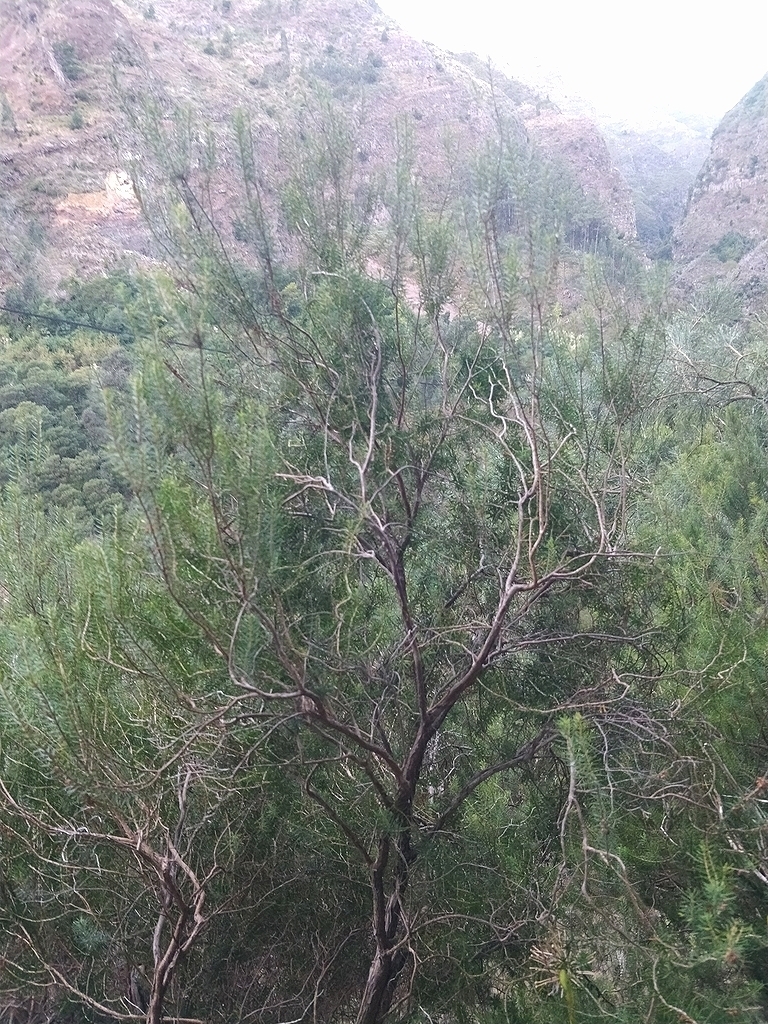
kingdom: Plantae
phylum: Tracheophyta
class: Magnoliopsida
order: Ericales
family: Ericaceae
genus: Erica
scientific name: Erica platycodon
